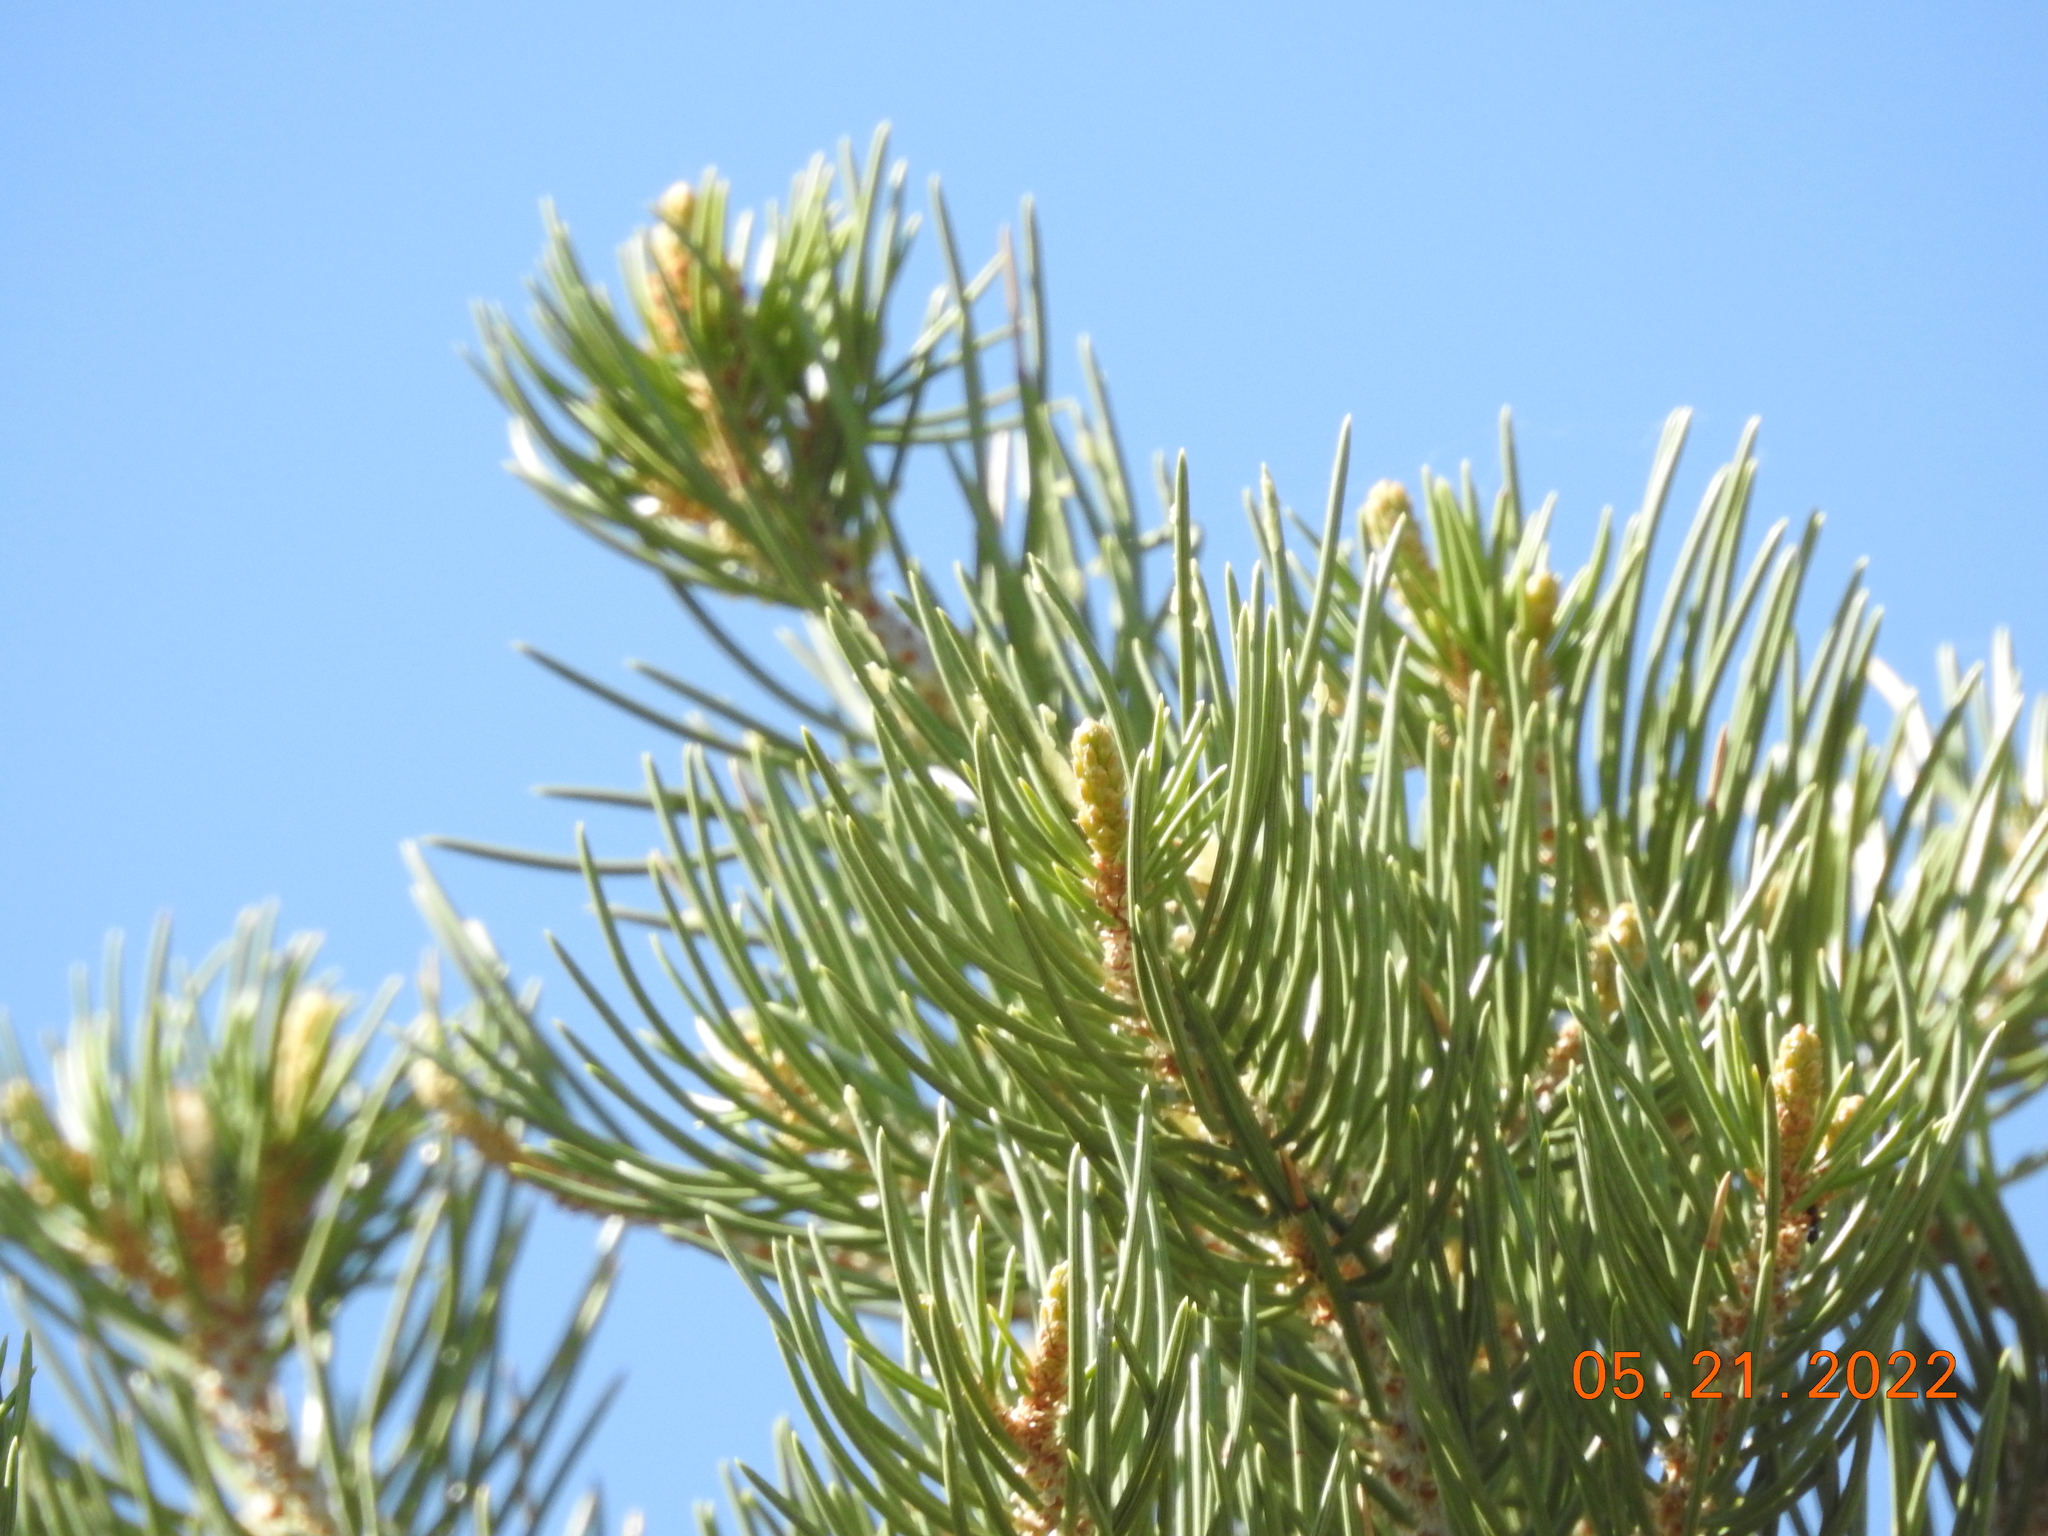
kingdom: Plantae
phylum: Tracheophyta
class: Pinopsida
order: Pinales
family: Pinaceae
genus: Pinus
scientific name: Pinus monophylla
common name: One-leaved nut pine
